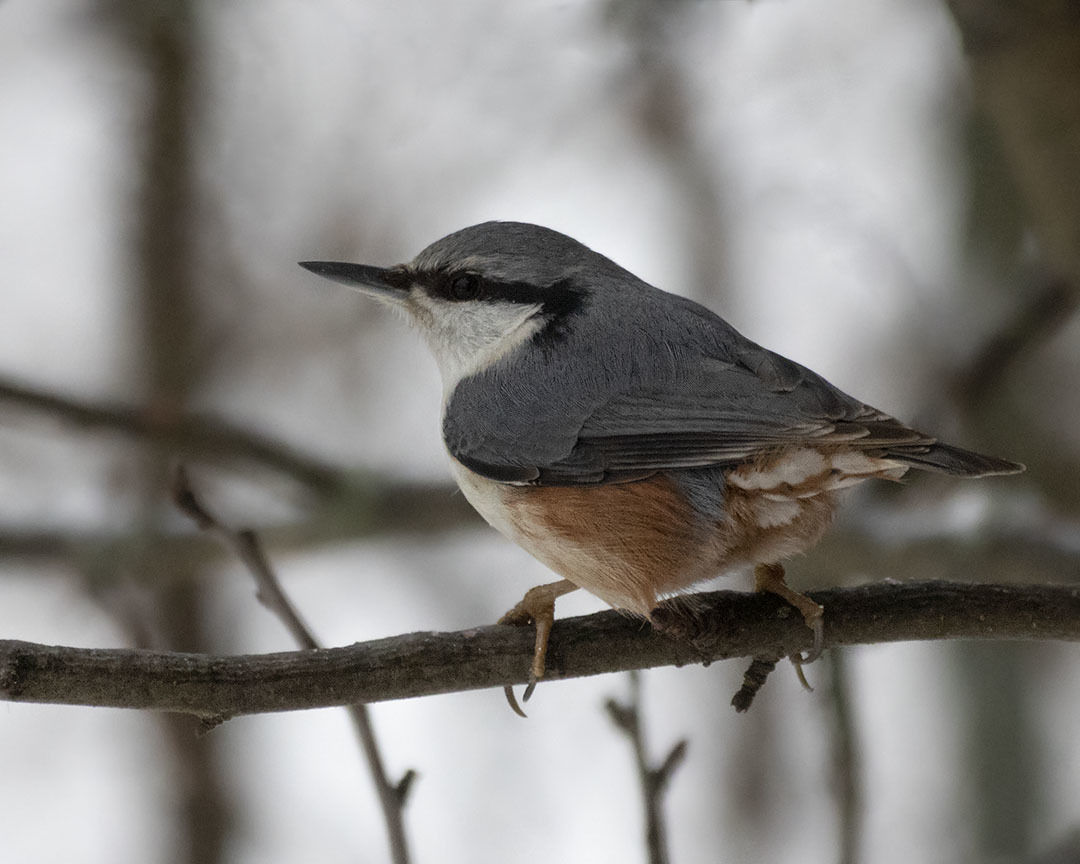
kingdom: Animalia
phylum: Chordata
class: Aves
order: Passeriformes
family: Sittidae
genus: Sitta
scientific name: Sitta europaea
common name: Eurasian nuthatch
